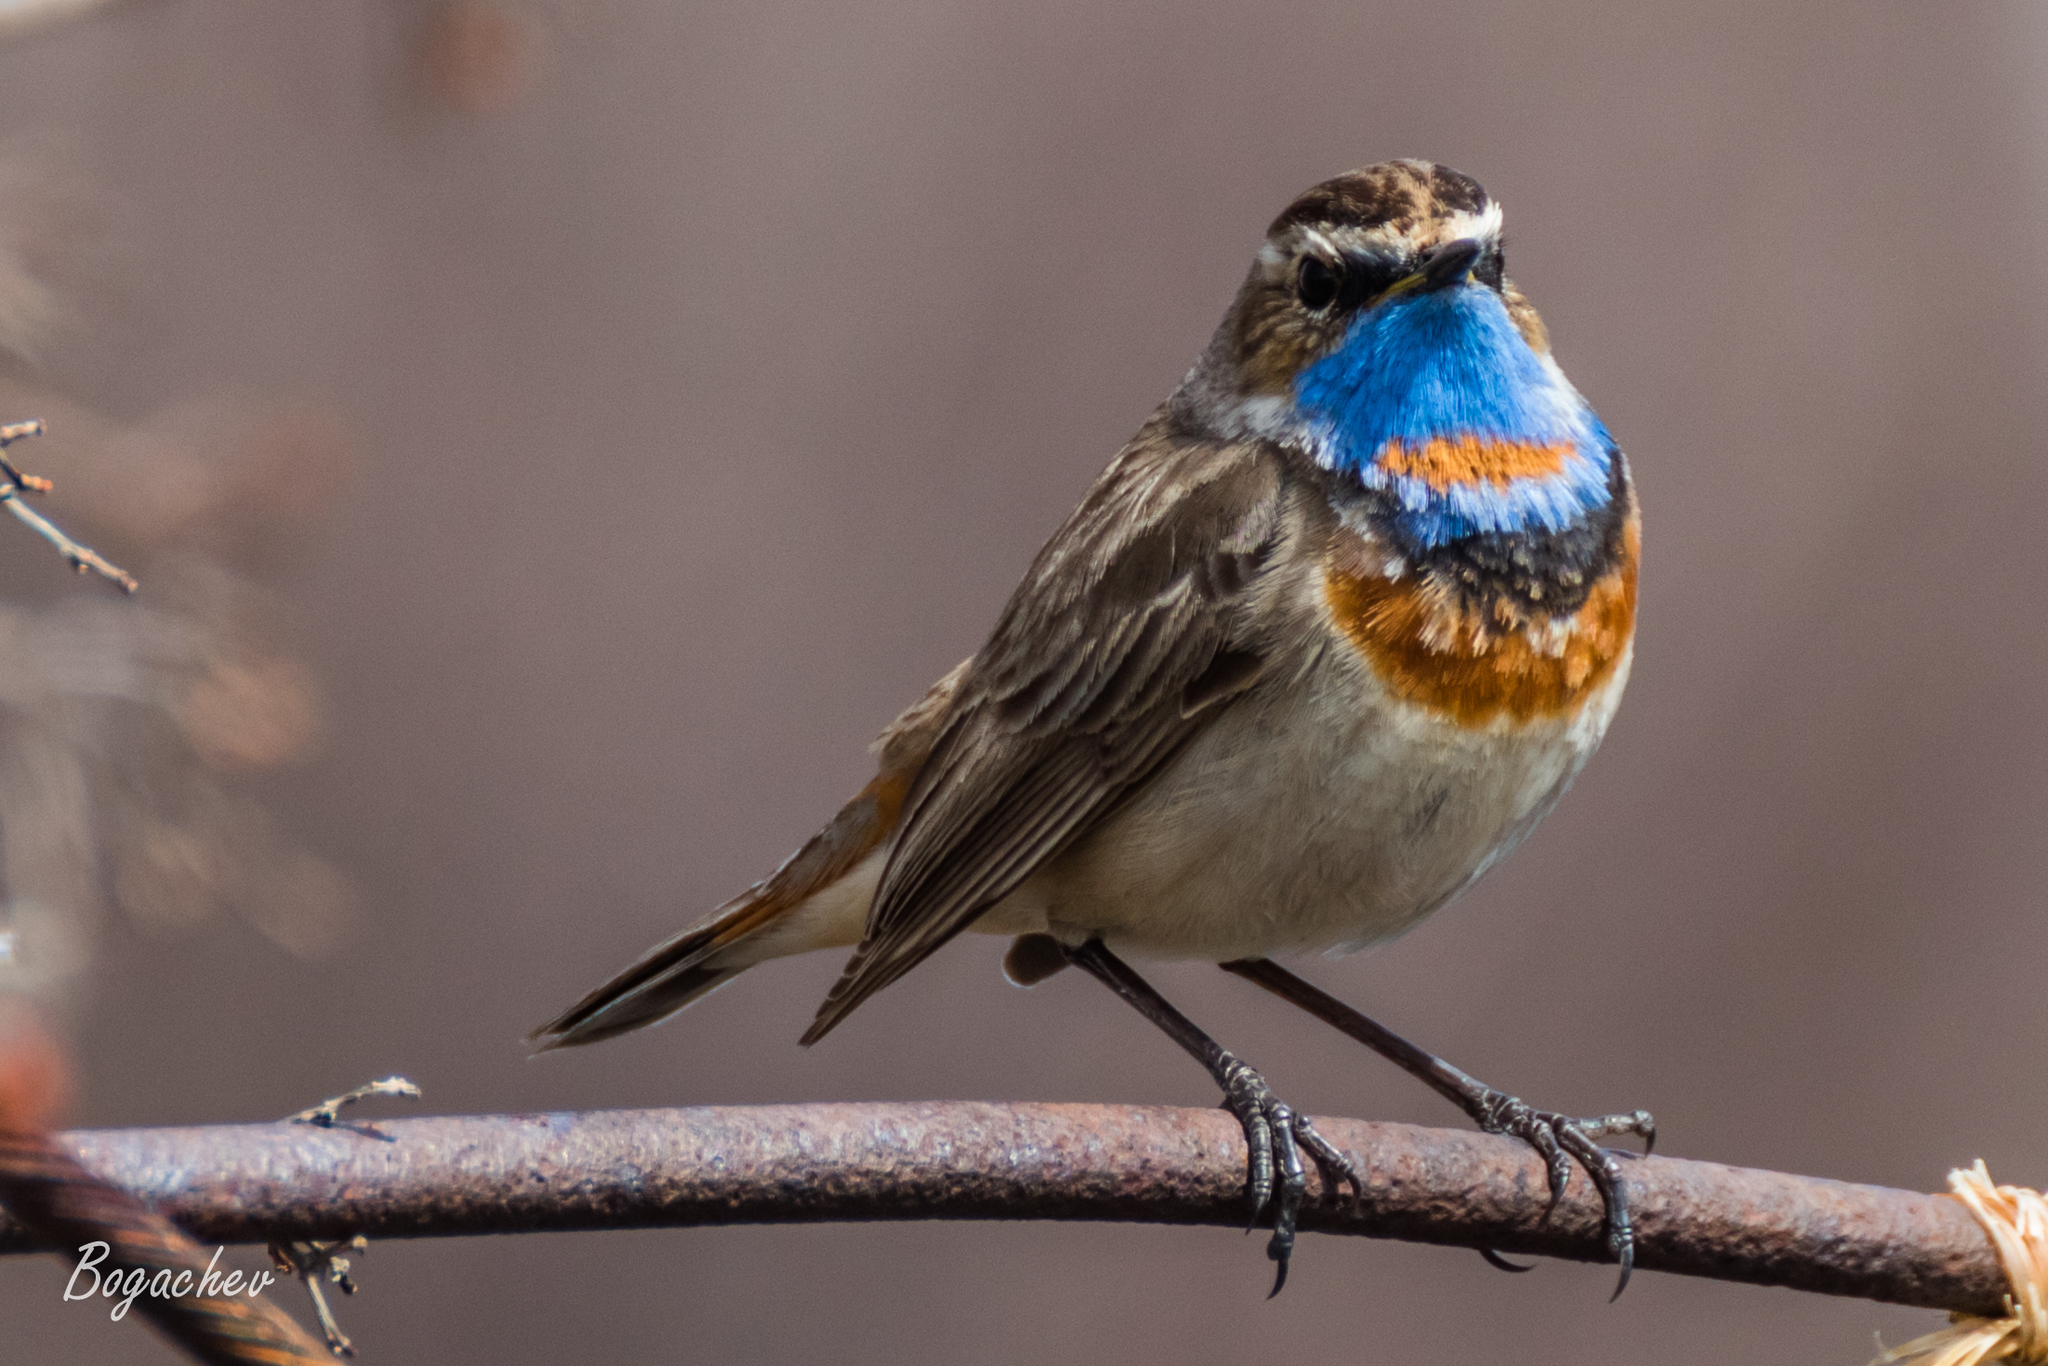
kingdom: Animalia
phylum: Chordata
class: Aves
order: Passeriformes
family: Muscicapidae
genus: Luscinia
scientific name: Luscinia svecica
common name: Bluethroat
